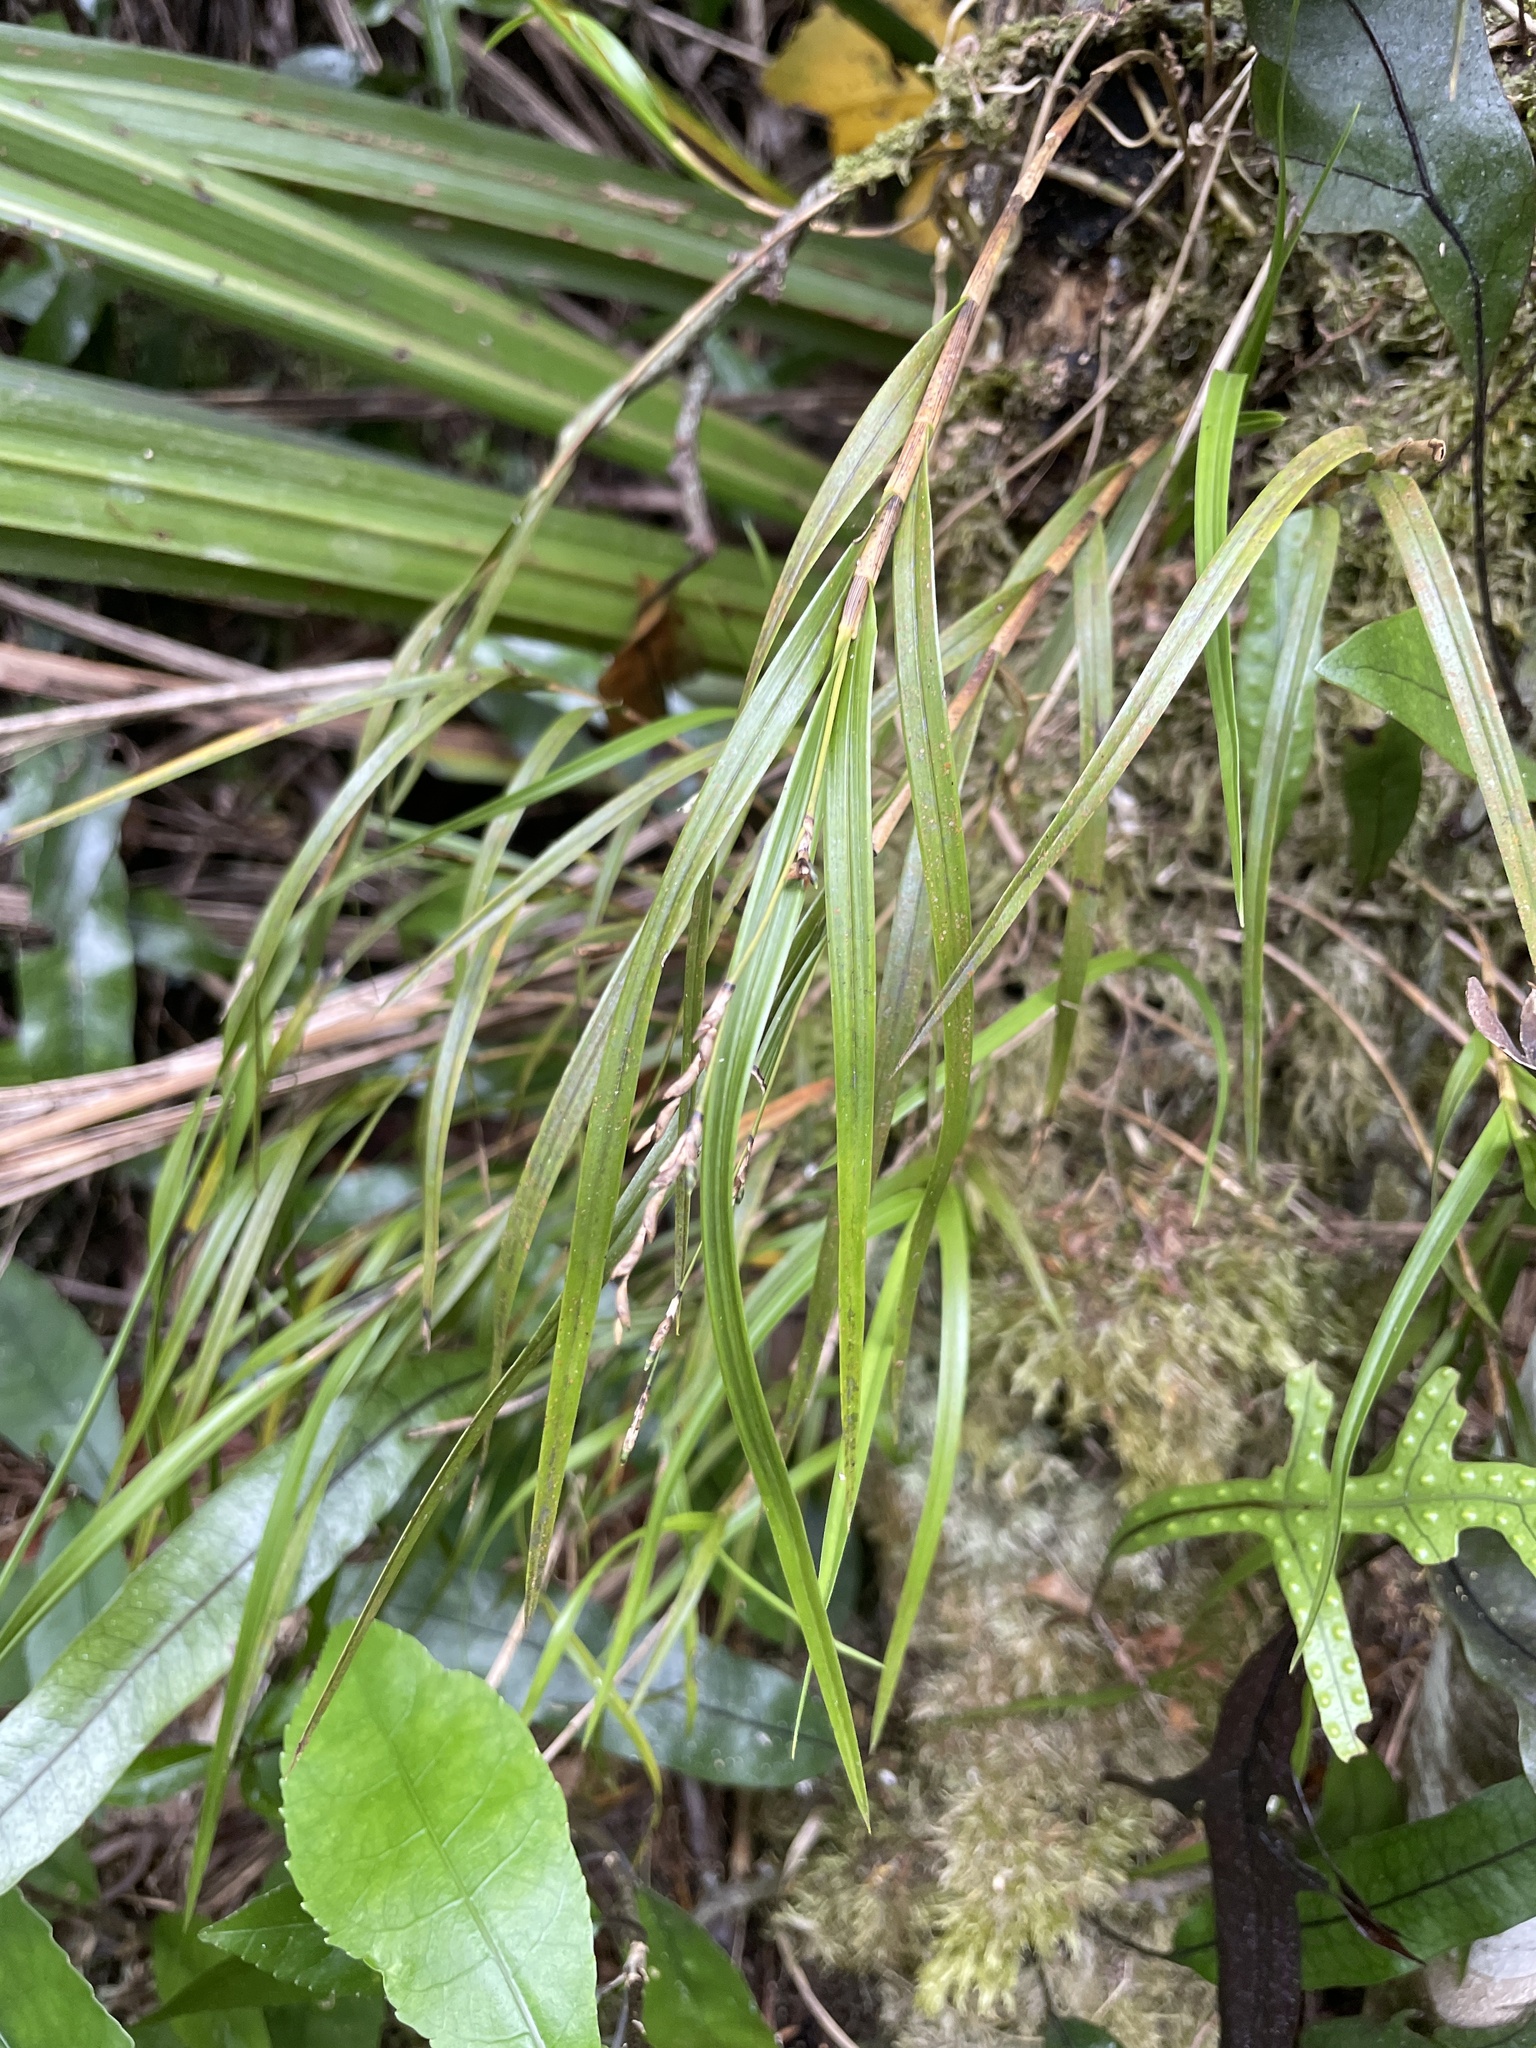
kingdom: Plantae
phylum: Tracheophyta
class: Liliopsida
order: Asparagales
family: Orchidaceae
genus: Earina
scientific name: Earina mucronata
